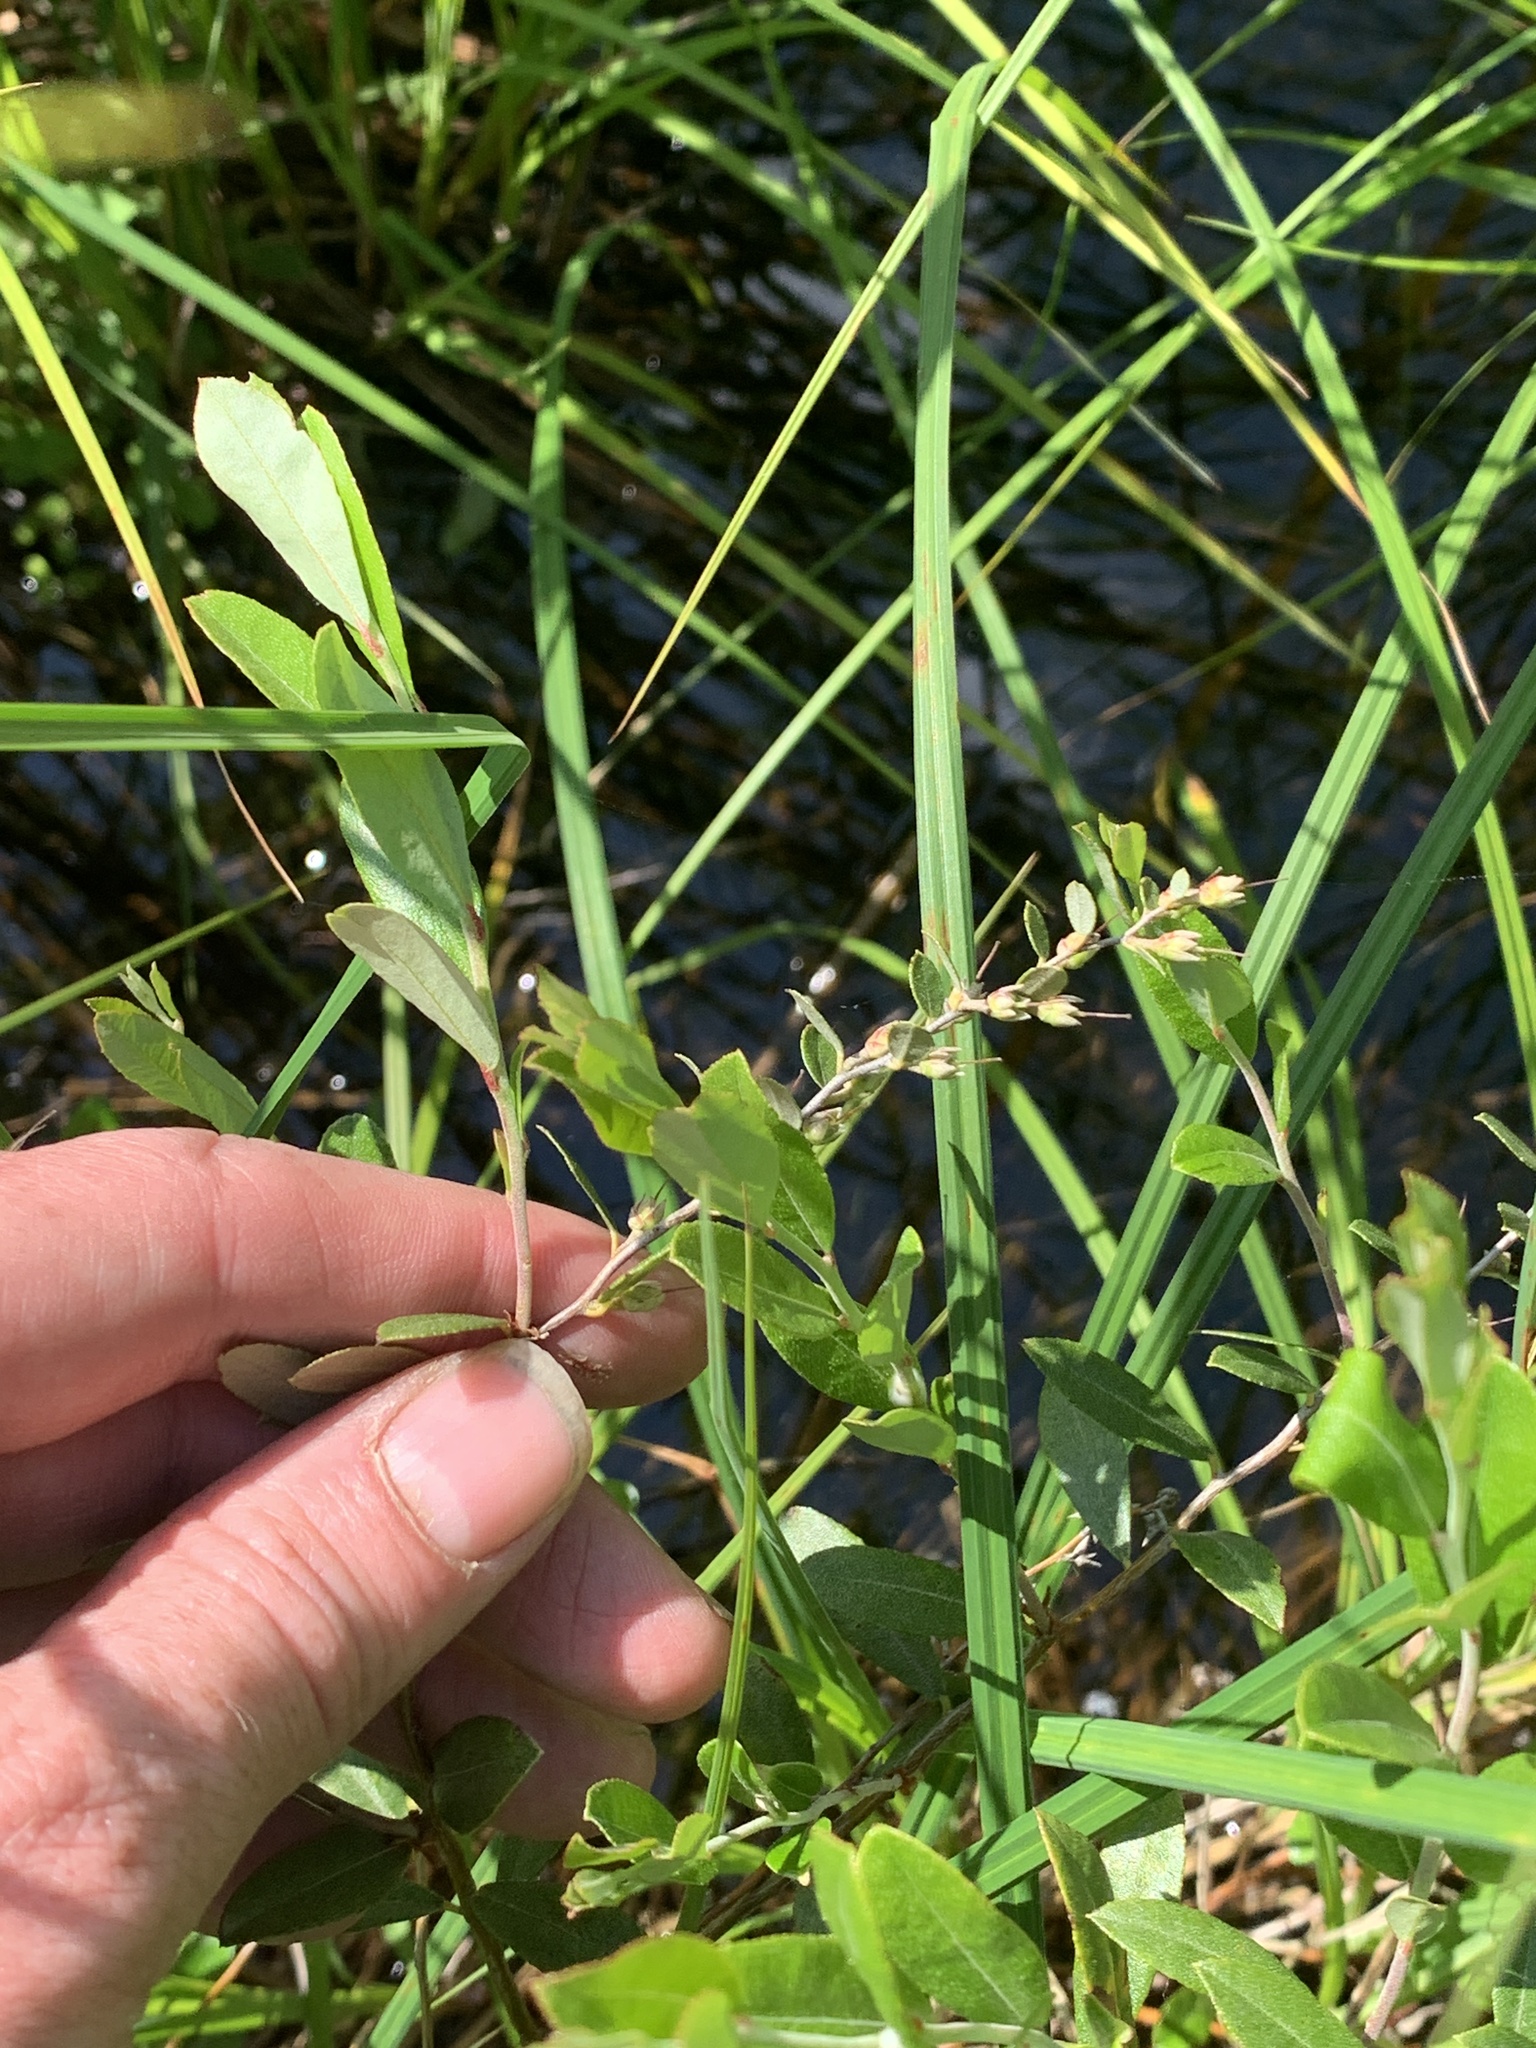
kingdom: Plantae
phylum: Tracheophyta
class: Magnoliopsida
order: Ericales
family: Ericaceae
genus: Chamaedaphne
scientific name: Chamaedaphne calyculata
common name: Leatherleaf
